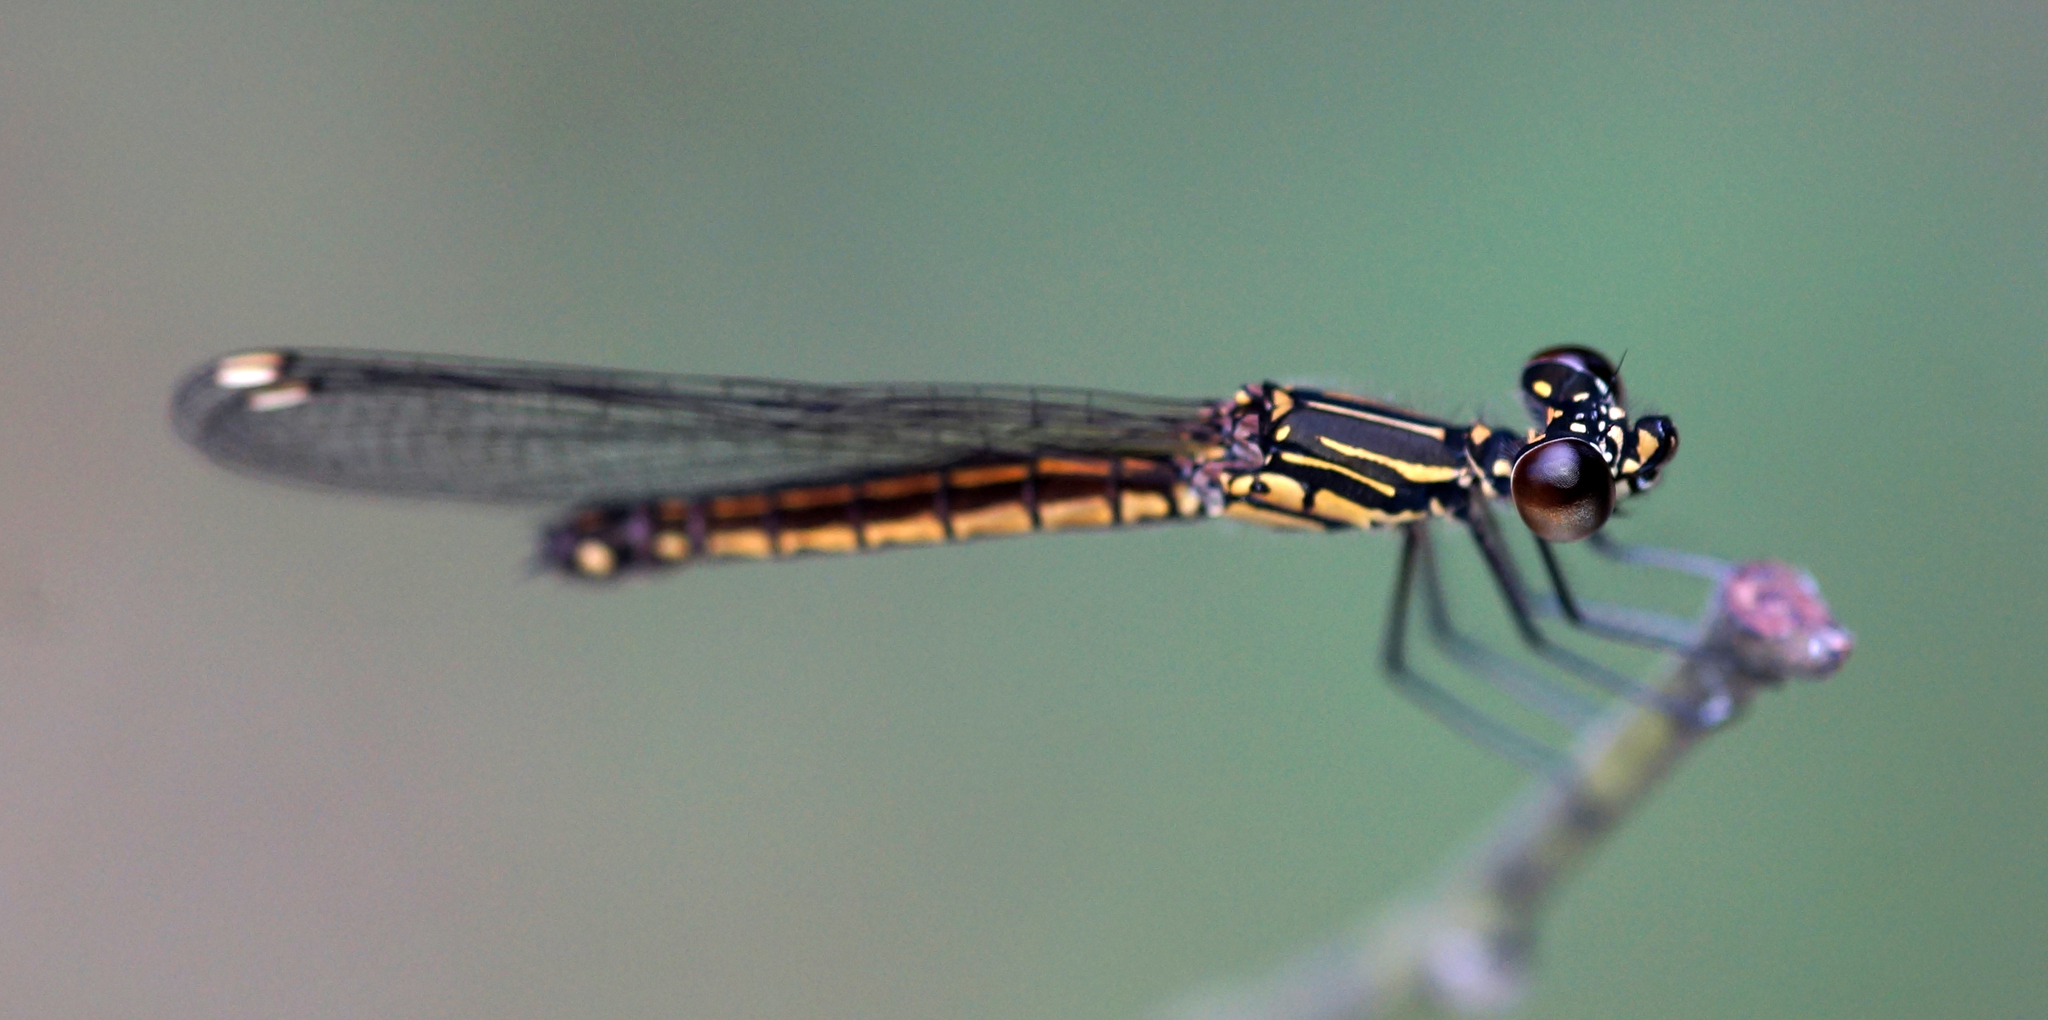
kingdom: Animalia
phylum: Arthropoda
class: Insecta
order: Odonata
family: Chlorocyphidae
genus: Libellago
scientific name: Libellago lineata
